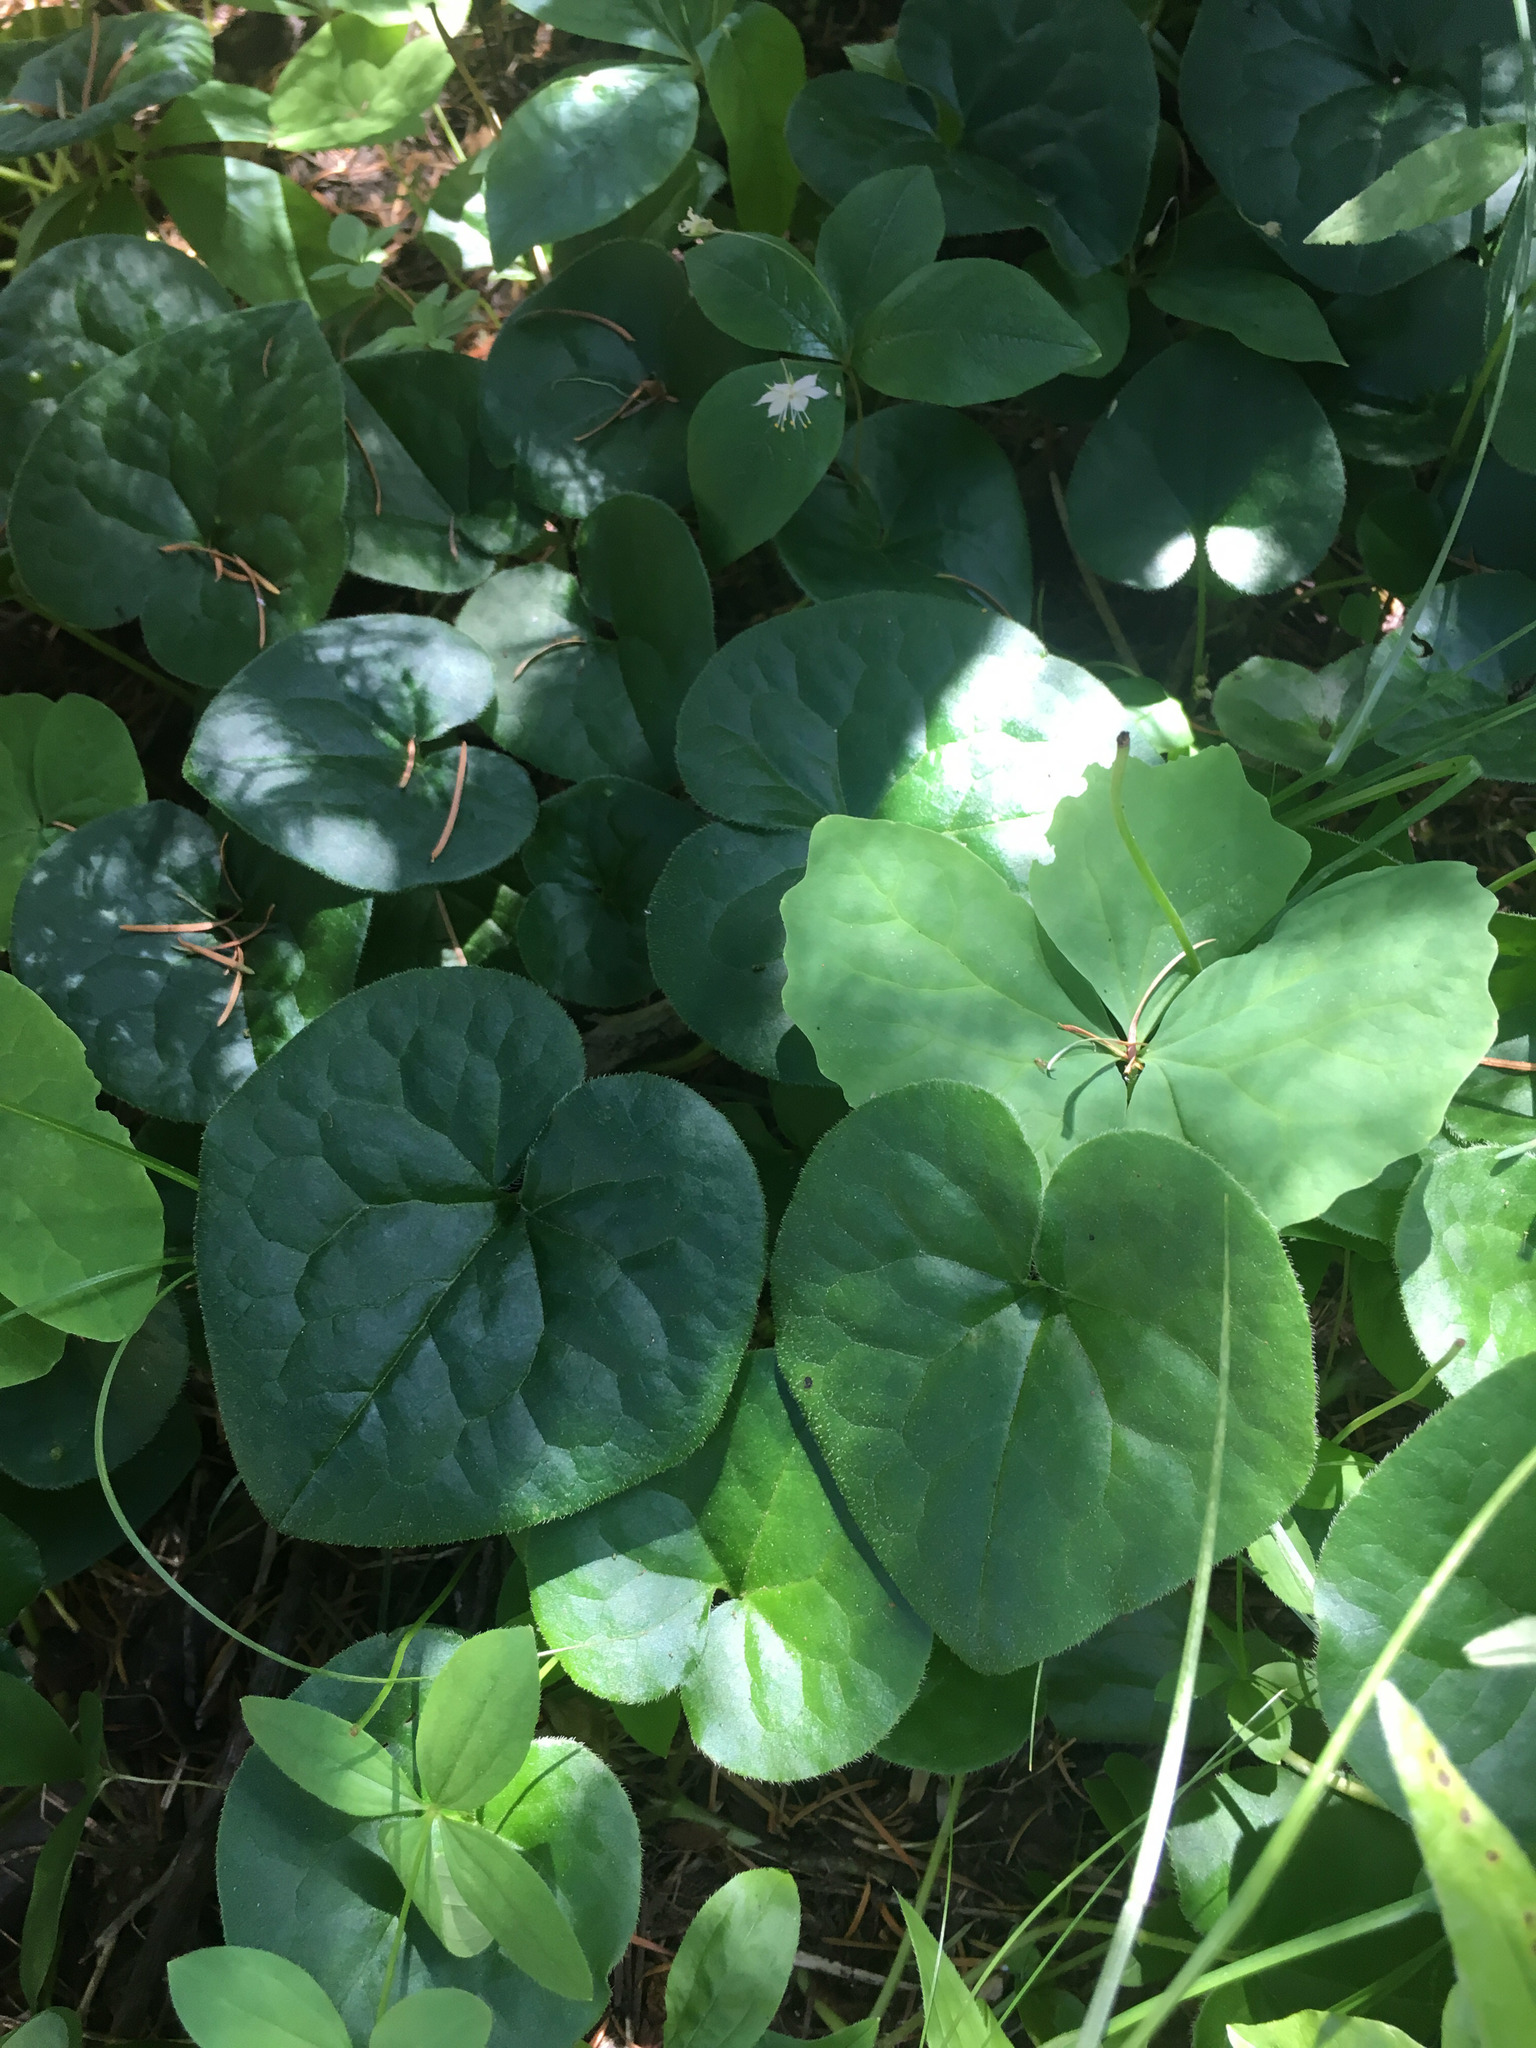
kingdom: Plantae
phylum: Tracheophyta
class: Magnoliopsida
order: Piperales
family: Aristolochiaceae
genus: Asarum
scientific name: Asarum caudatum
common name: Wild ginger
